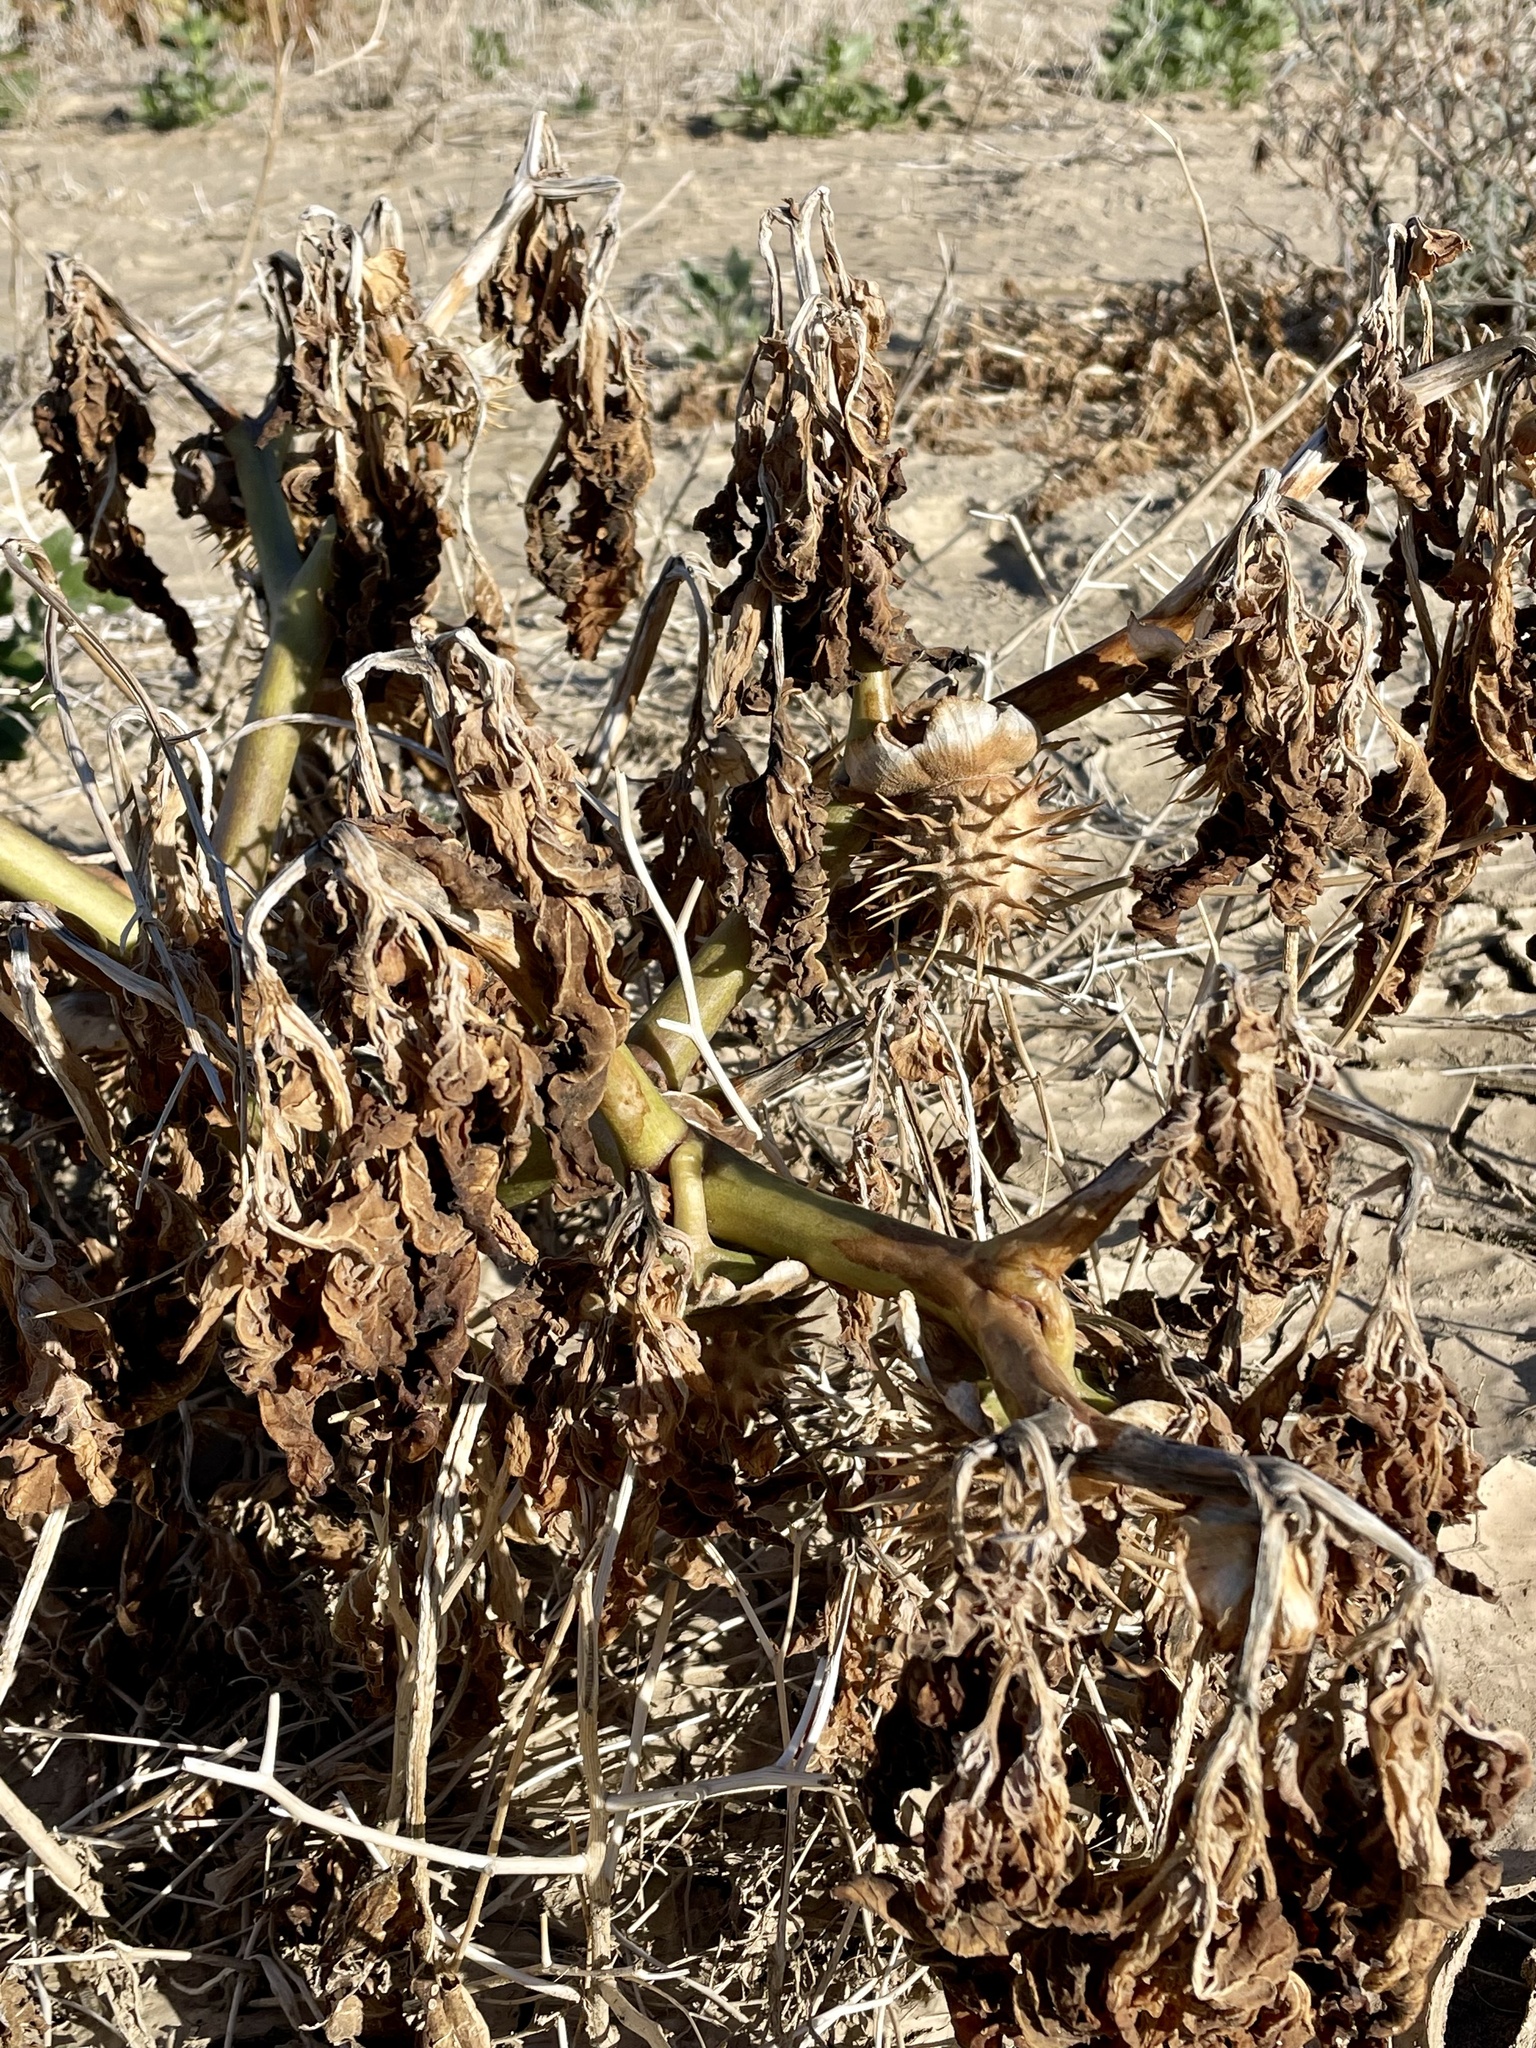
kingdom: Plantae
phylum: Tracheophyta
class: Magnoliopsida
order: Solanales
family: Solanaceae
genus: Datura
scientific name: Datura discolor
